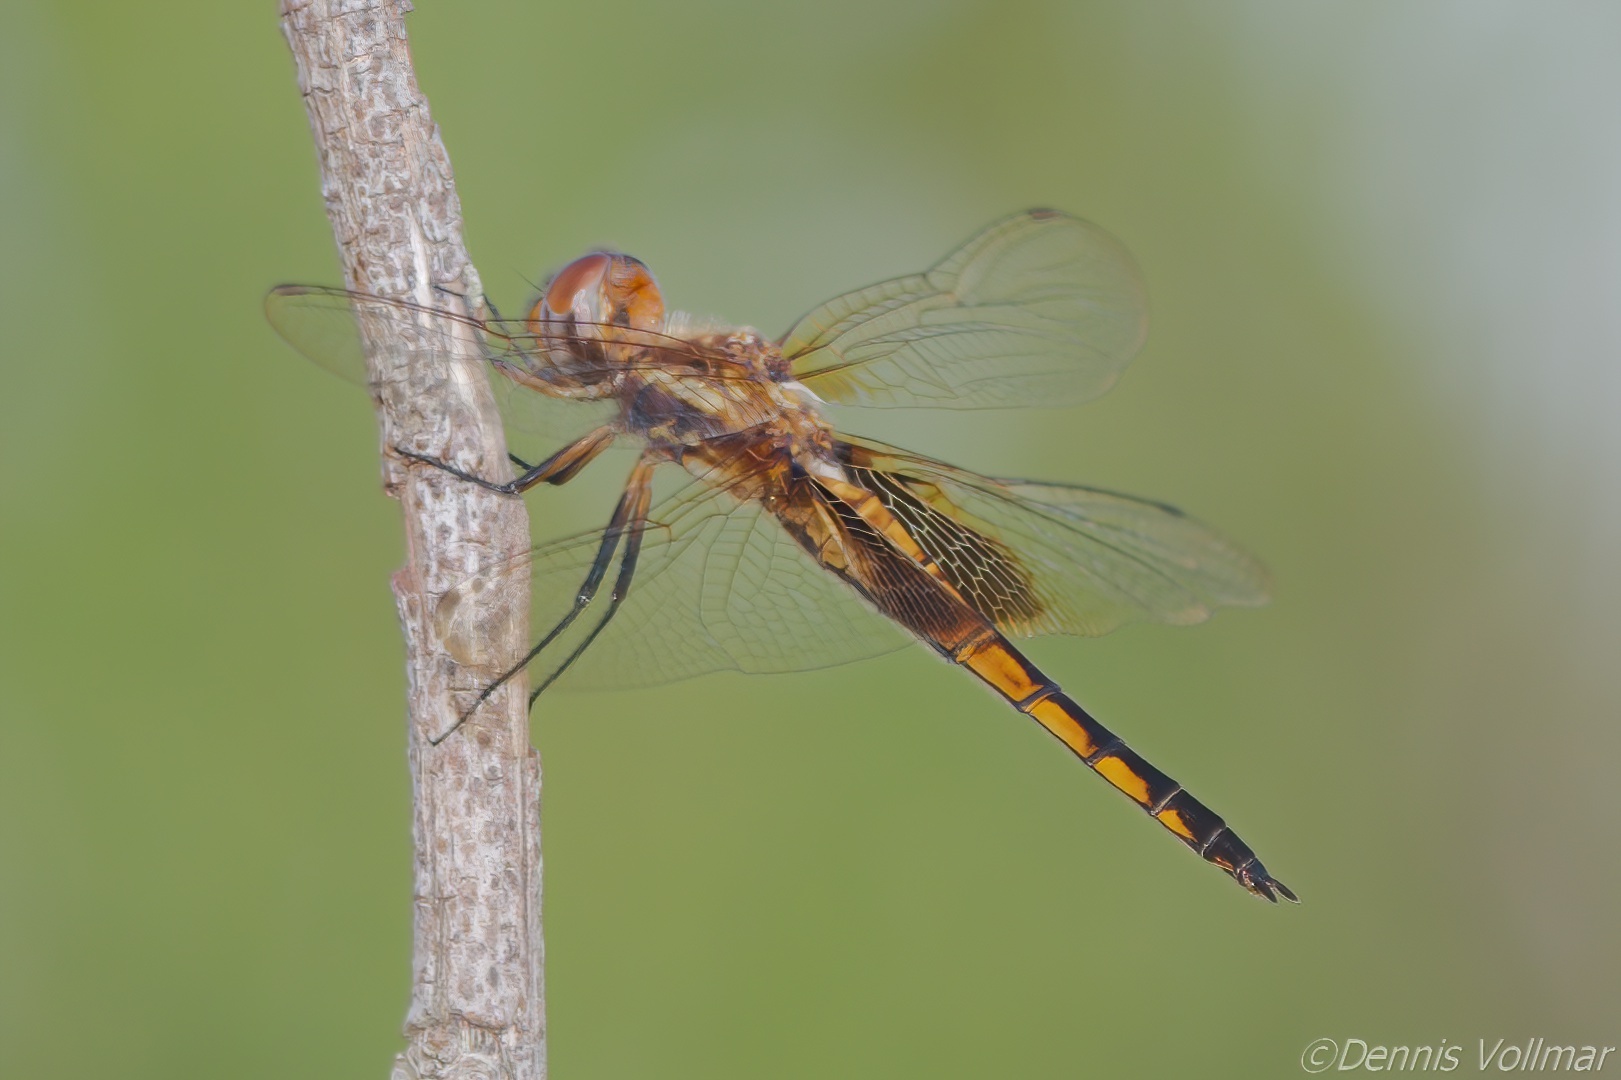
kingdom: Animalia
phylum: Arthropoda
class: Insecta
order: Odonata
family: Libellulidae
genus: Miathyria
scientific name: Miathyria marcella
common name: Hyacinth glider
